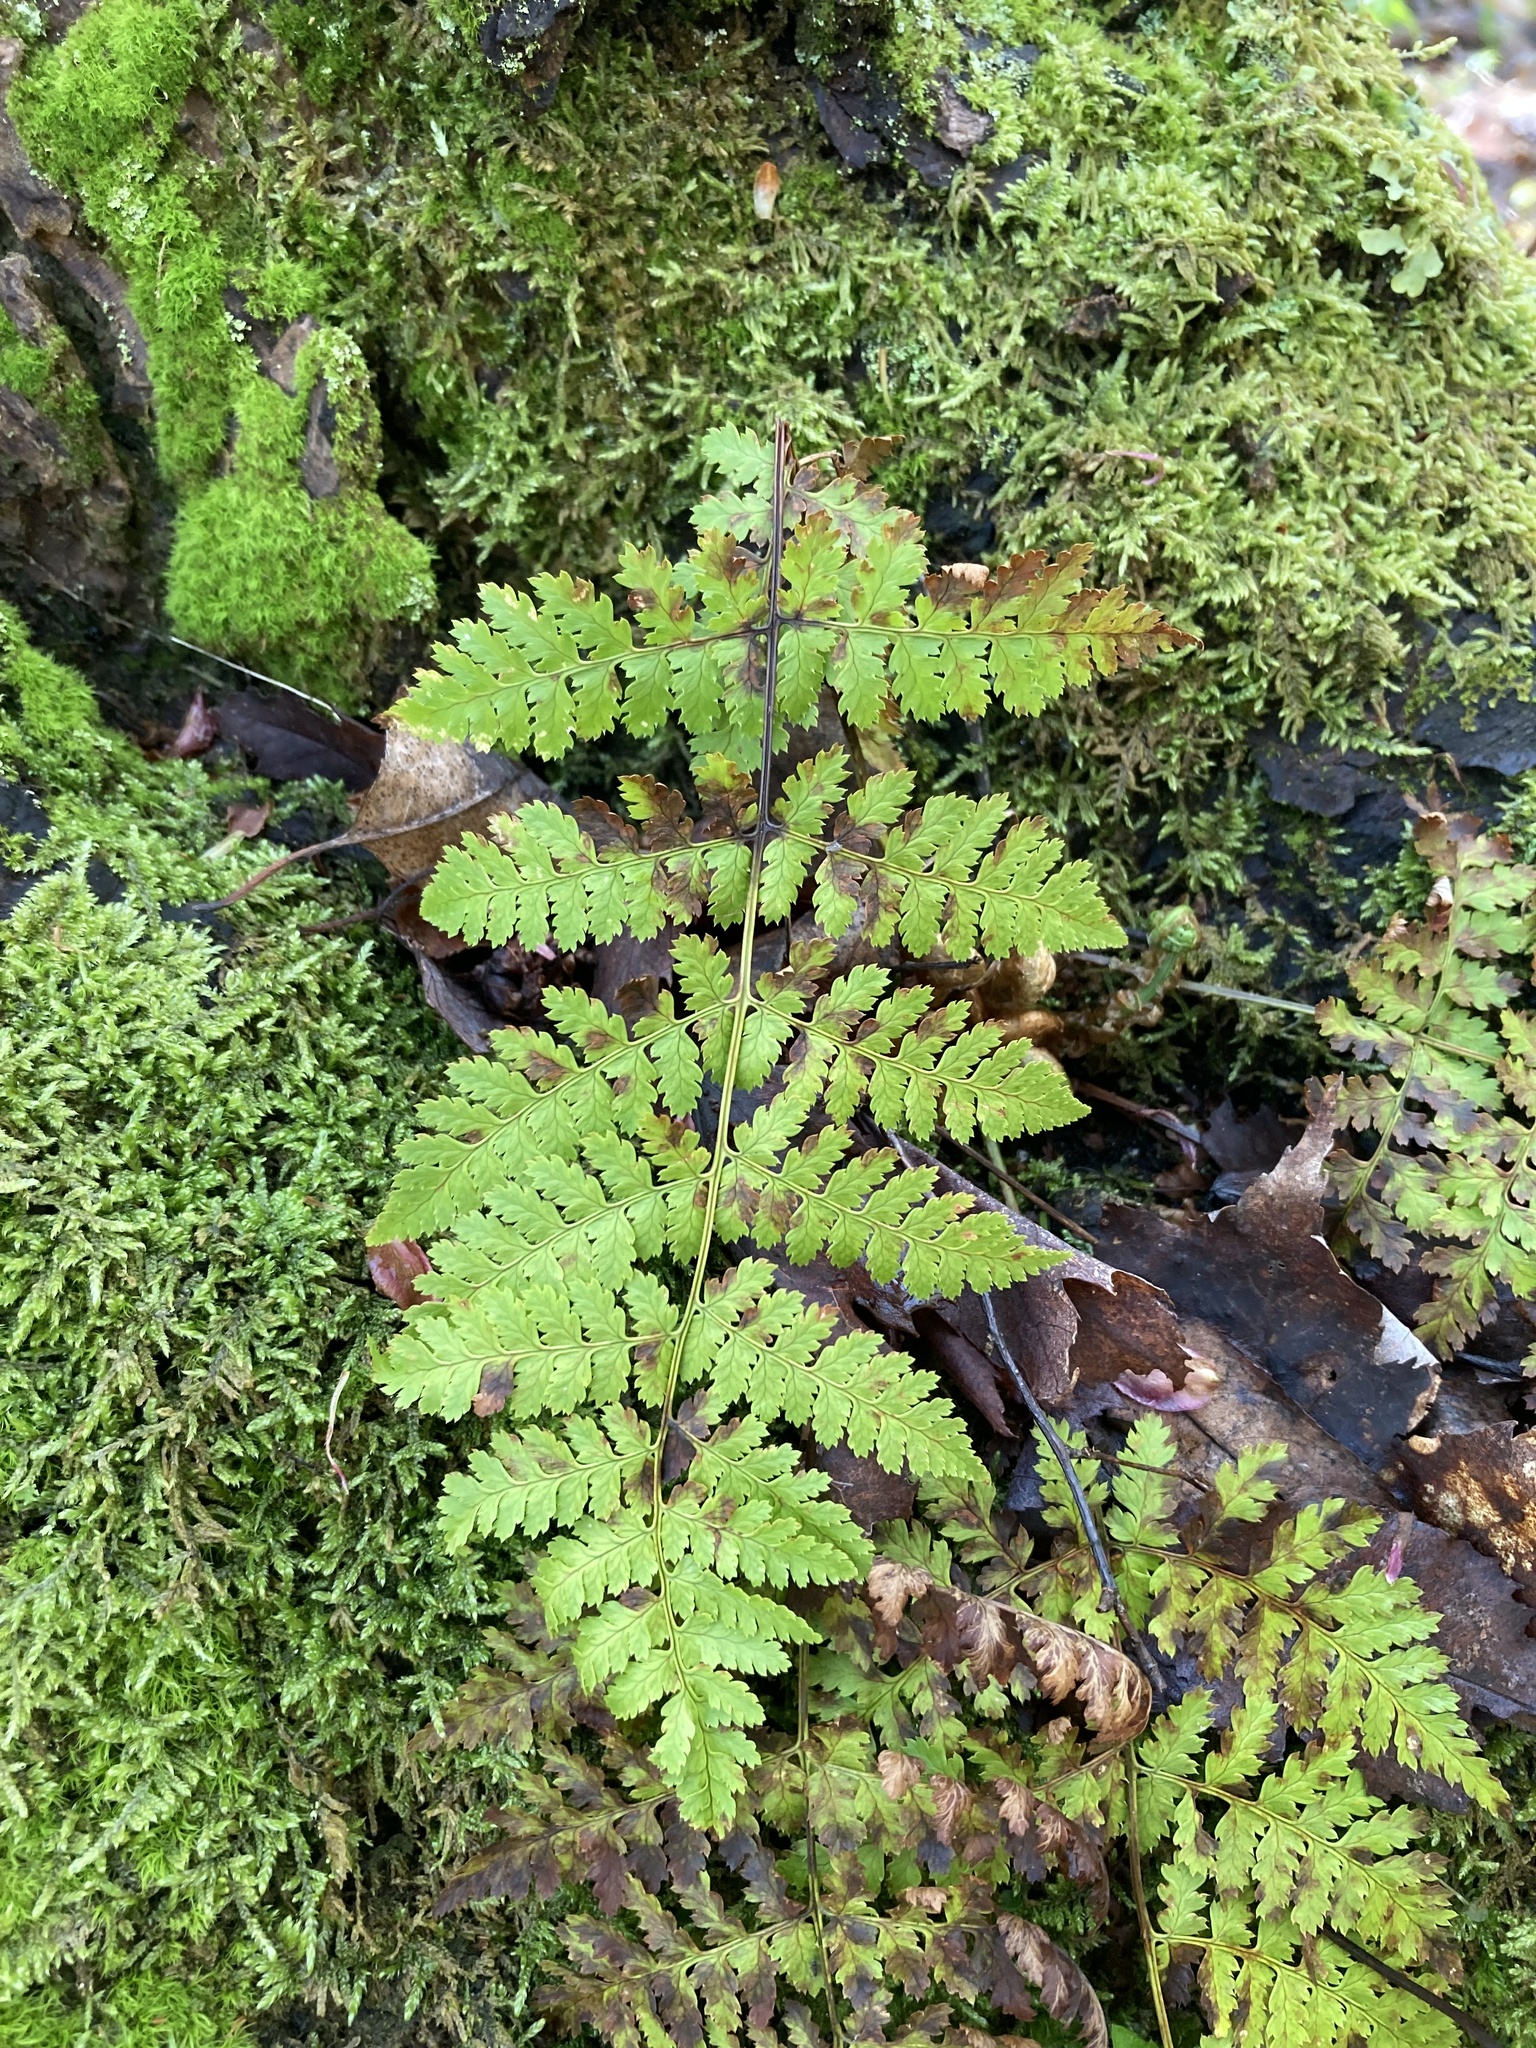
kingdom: Plantae
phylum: Tracheophyta
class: Polypodiopsida
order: Polypodiales
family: Dryopteridaceae
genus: Dryopteris
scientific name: Dryopteris intermedia
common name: Evergreen wood fern
